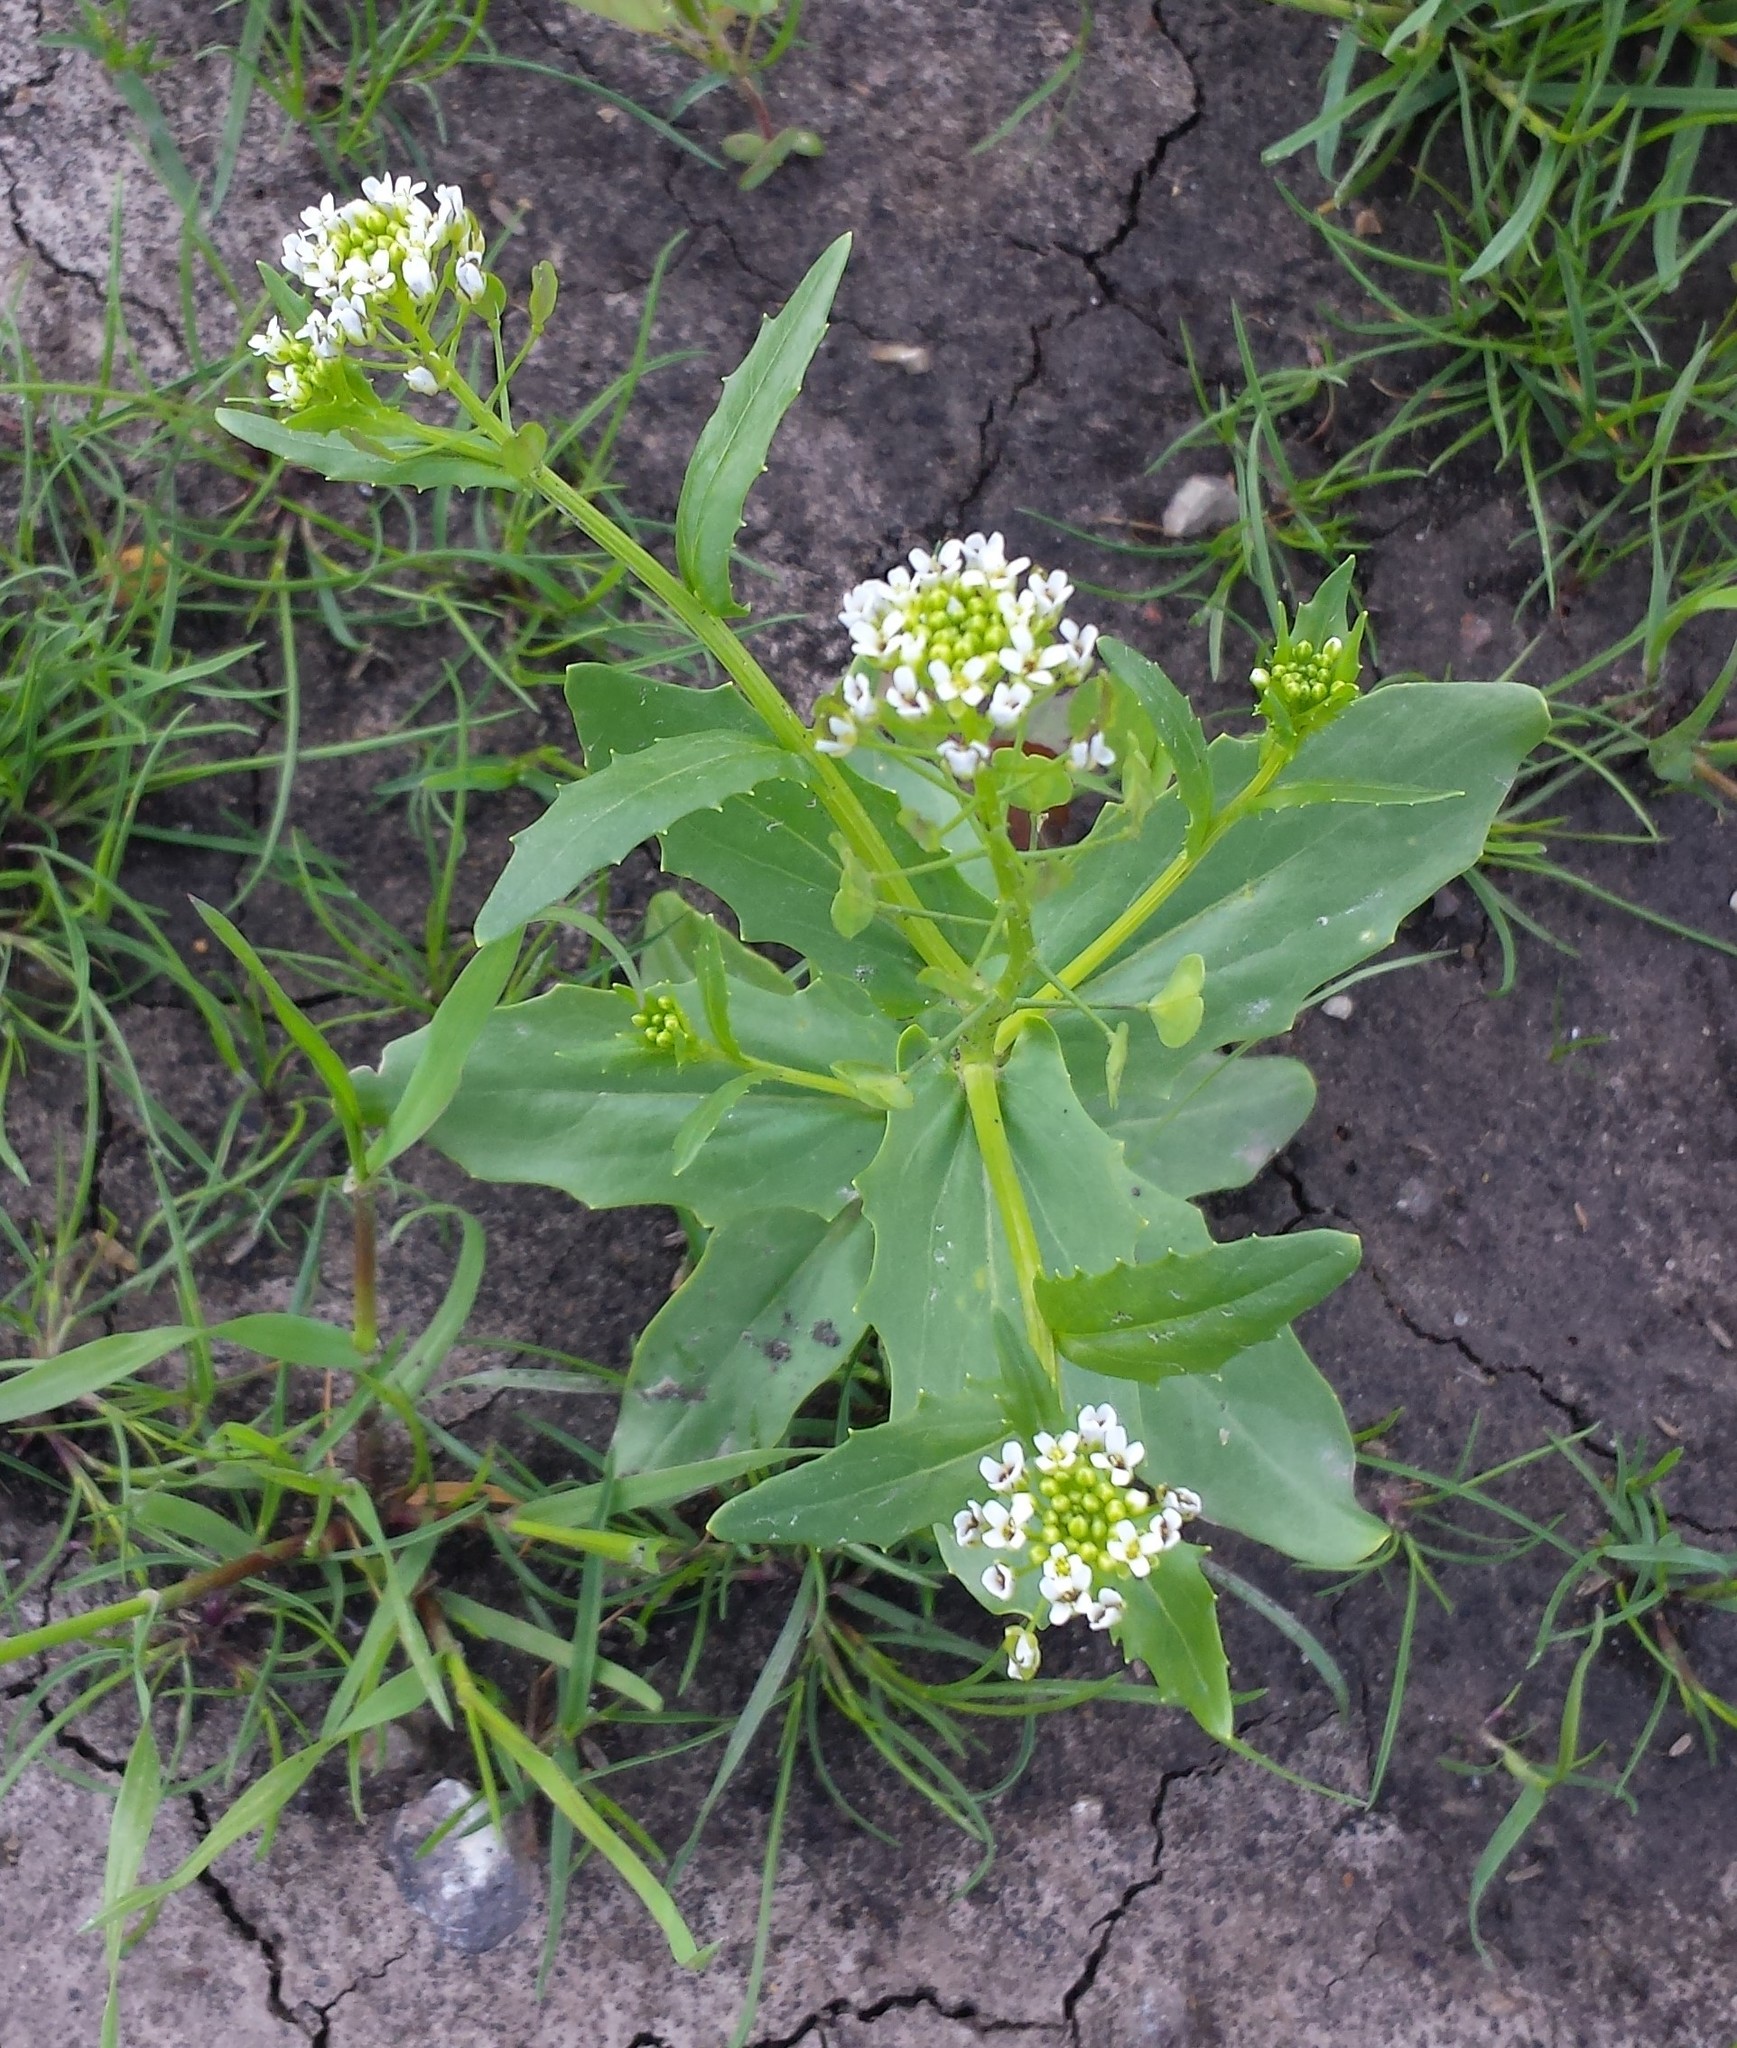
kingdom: Plantae
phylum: Tracheophyta
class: Magnoliopsida
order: Brassicales
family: Brassicaceae
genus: Thlaspi
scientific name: Thlaspi arvense
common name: Field pennycress
